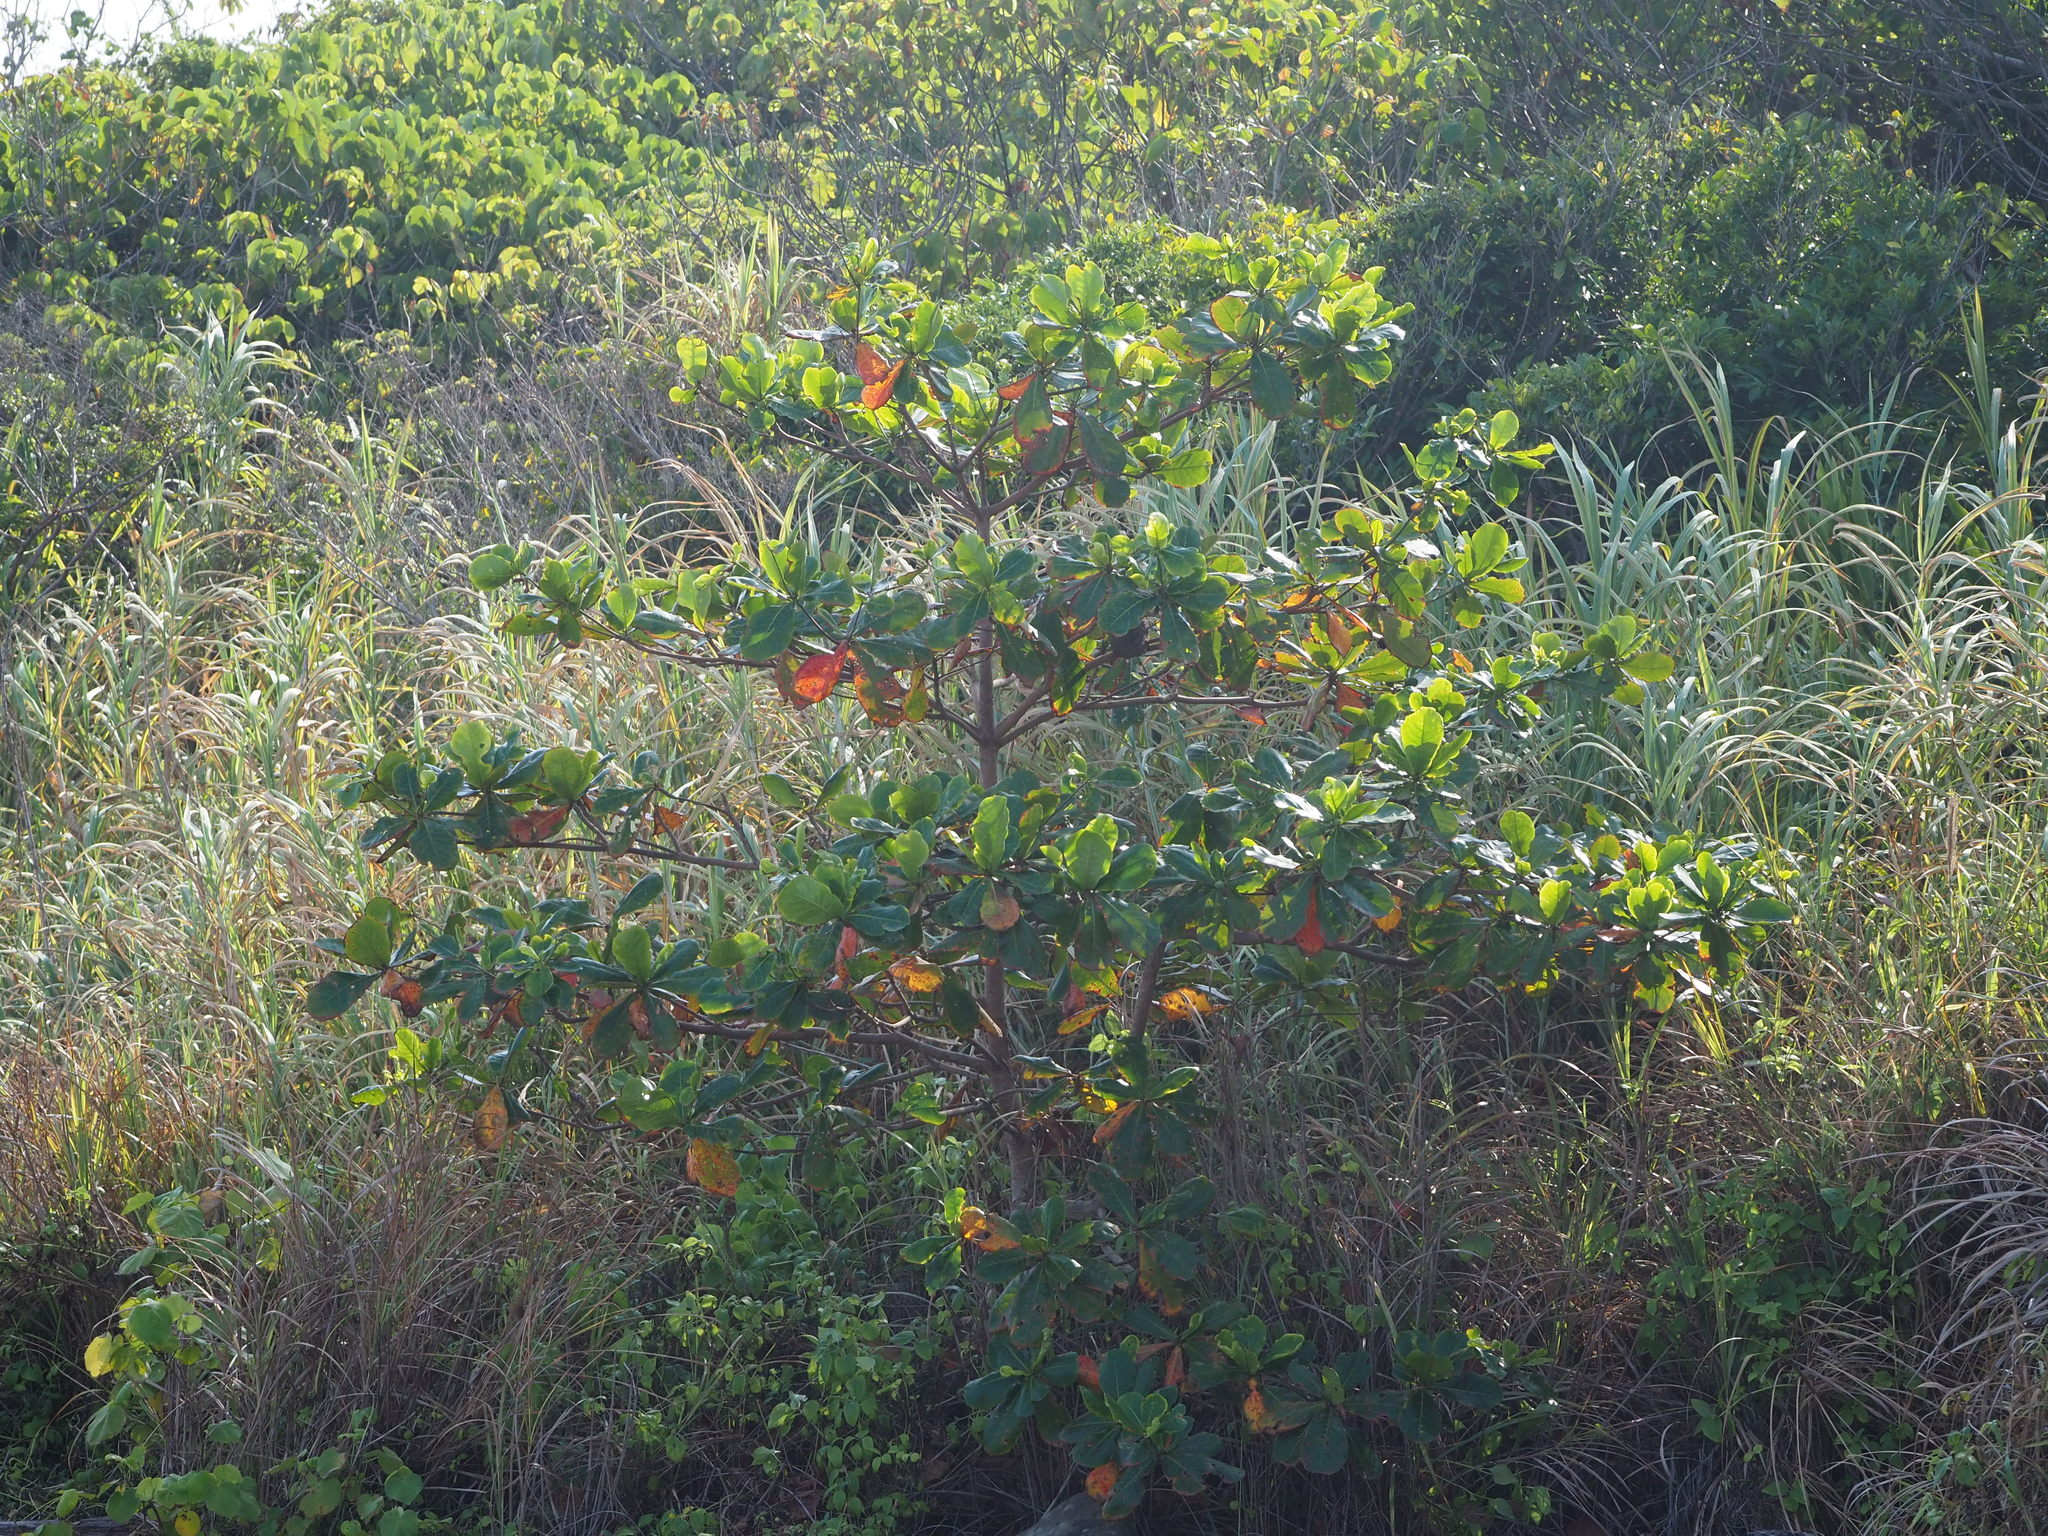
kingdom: Plantae
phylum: Tracheophyta
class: Magnoliopsida
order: Myrtales
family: Combretaceae
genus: Terminalia
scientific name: Terminalia catappa
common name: Tropical almond
